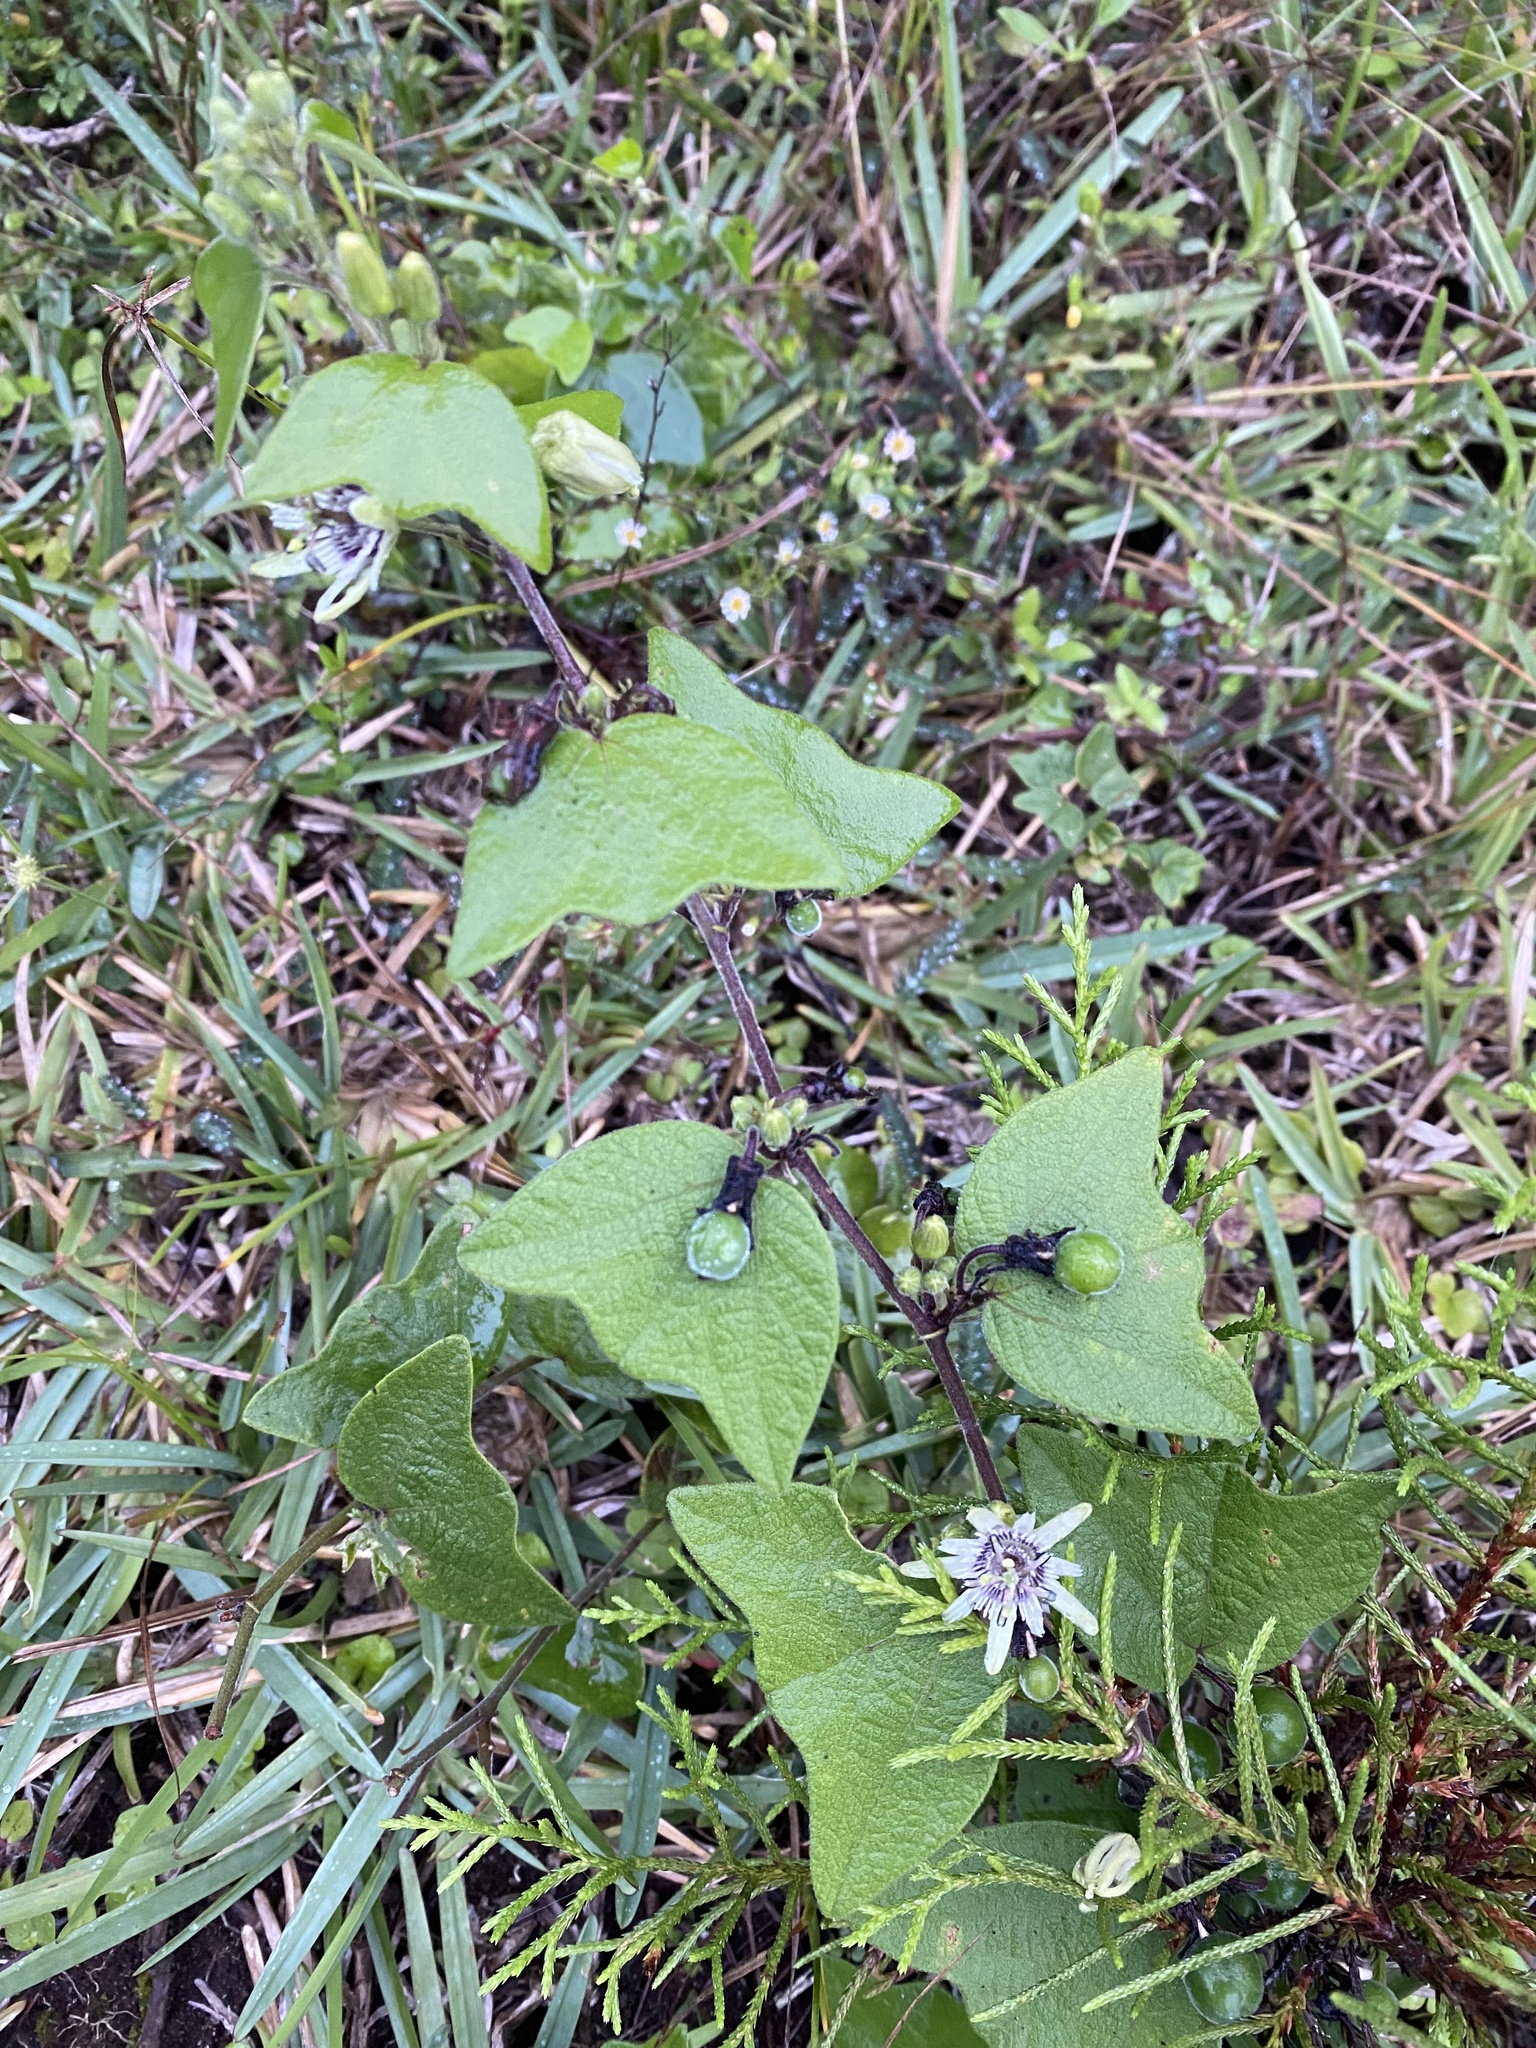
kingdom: Plantae
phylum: Tracheophyta
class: Magnoliopsida
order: Malpighiales
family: Passifloraceae
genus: Passiflora
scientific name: Passiflora sexflora
